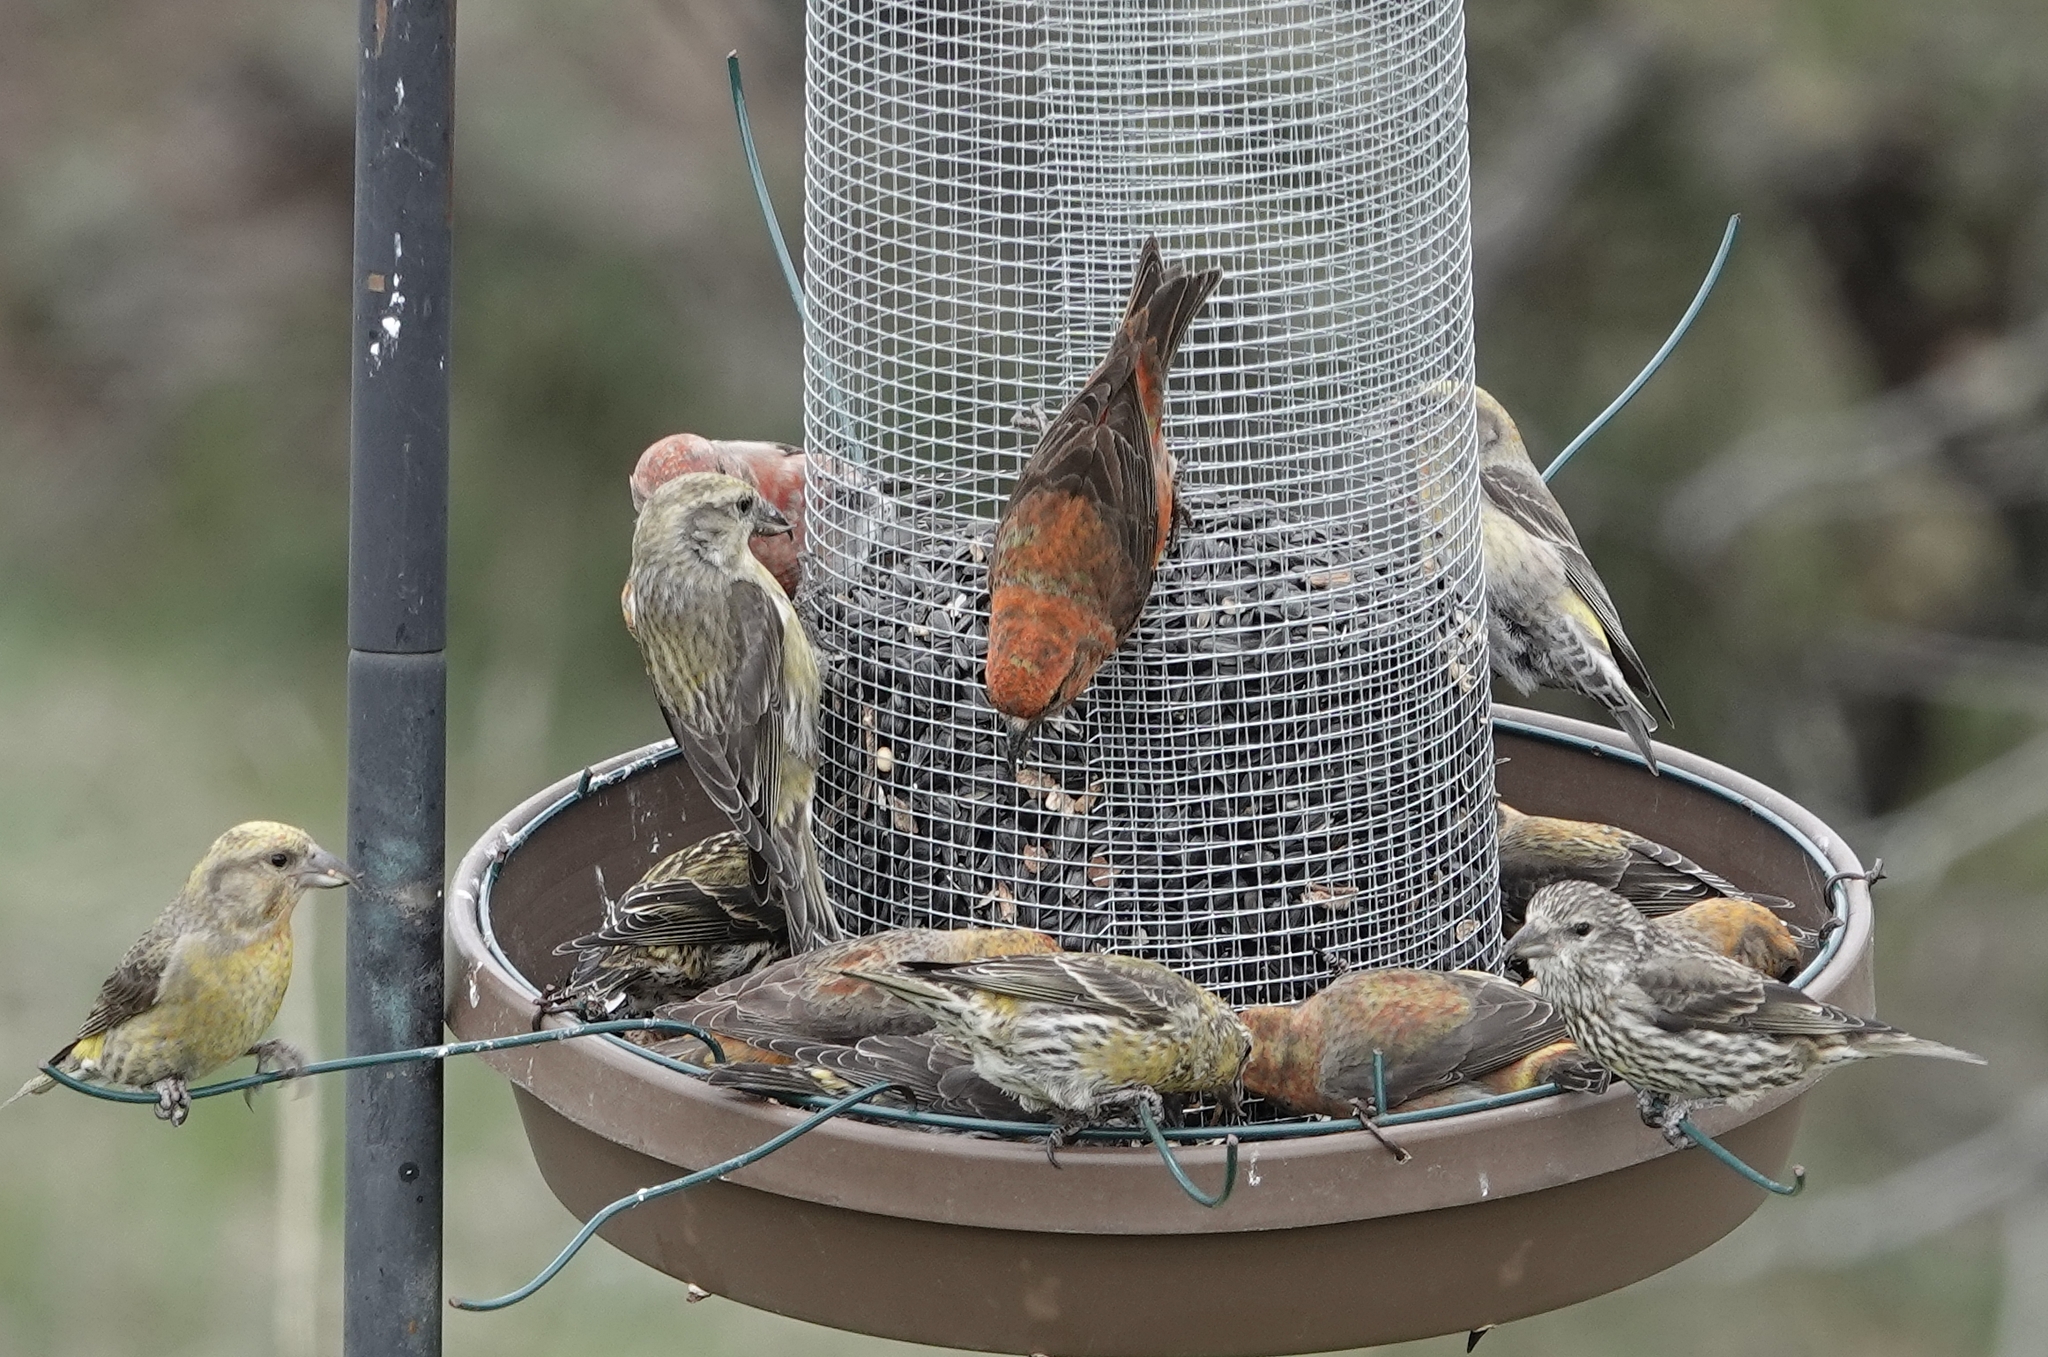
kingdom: Animalia
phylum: Chordata
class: Aves
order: Passeriformes
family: Fringillidae
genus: Loxia
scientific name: Loxia curvirostra
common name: Red crossbill
